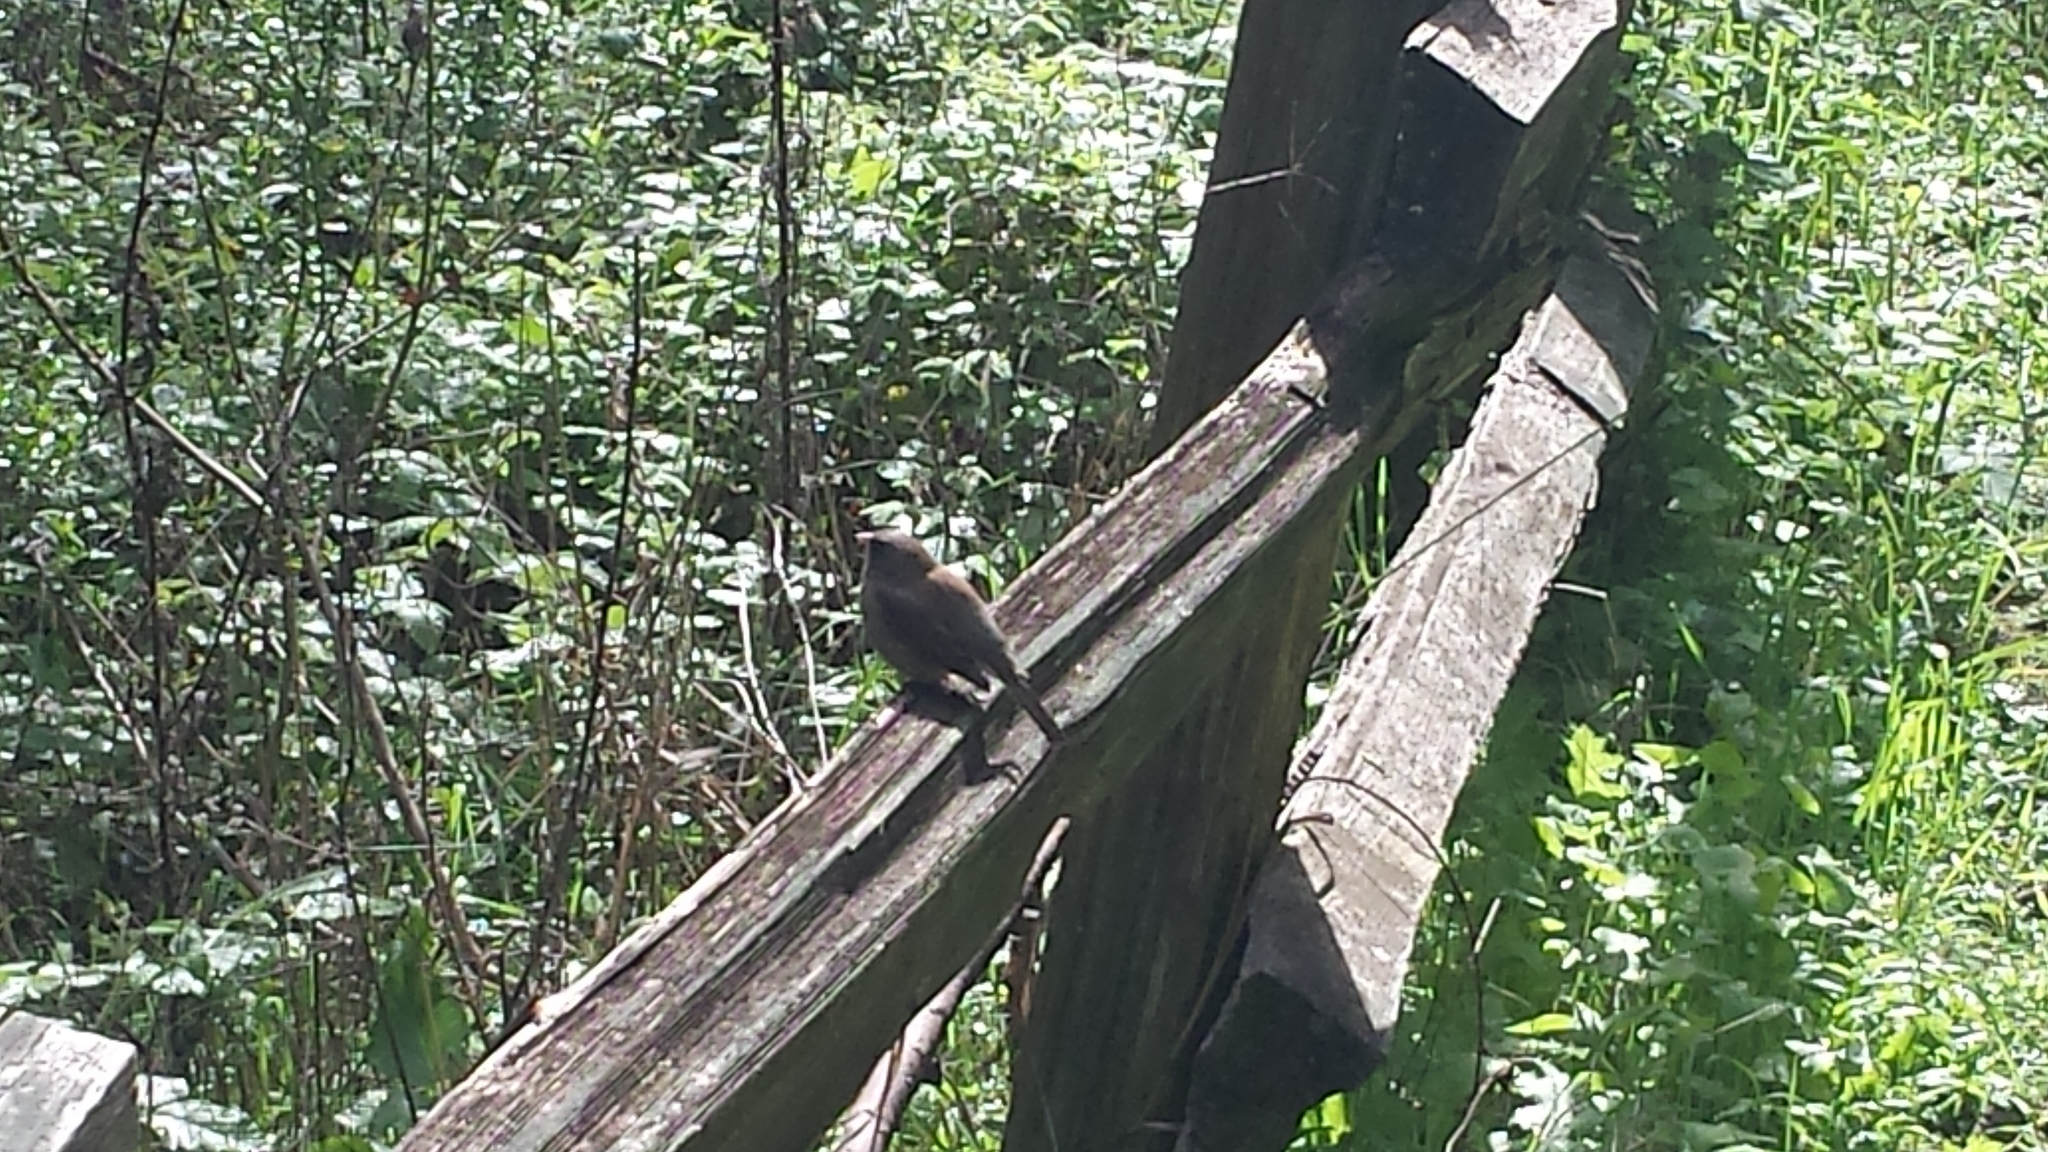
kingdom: Animalia
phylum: Chordata
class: Aves
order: Passeriformes
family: Passerellidae
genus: Junco
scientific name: Junco hyemalis
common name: Dark-eyed junco
